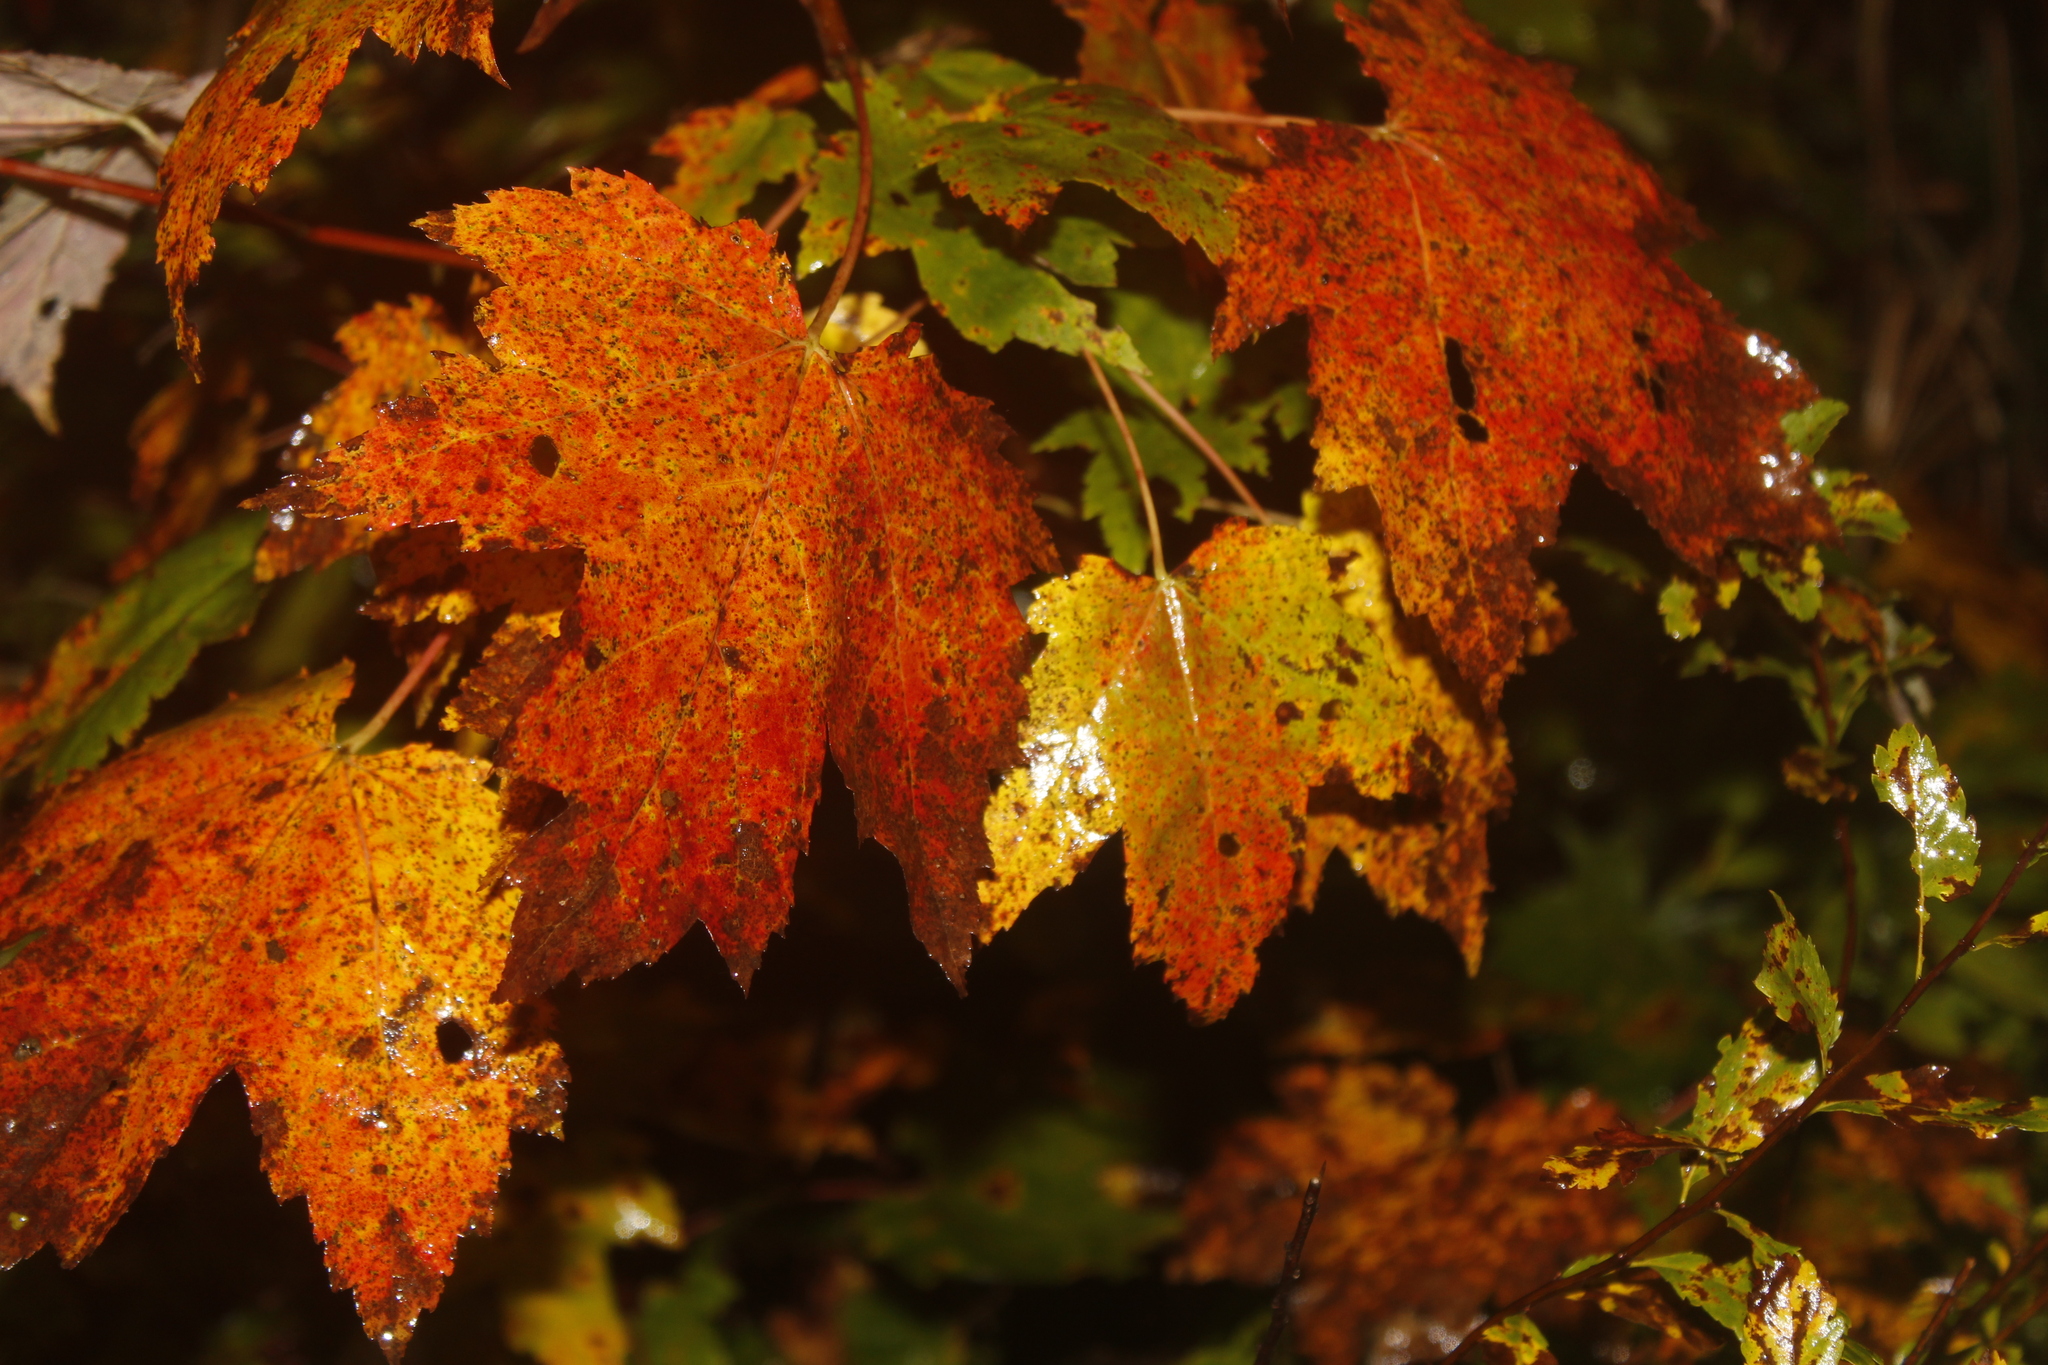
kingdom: Plantae
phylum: Tracheophyta
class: Magnoliopsida
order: Sapindales
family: Sapindaceae
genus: Acer
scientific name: Acer rubrum
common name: Red maple
